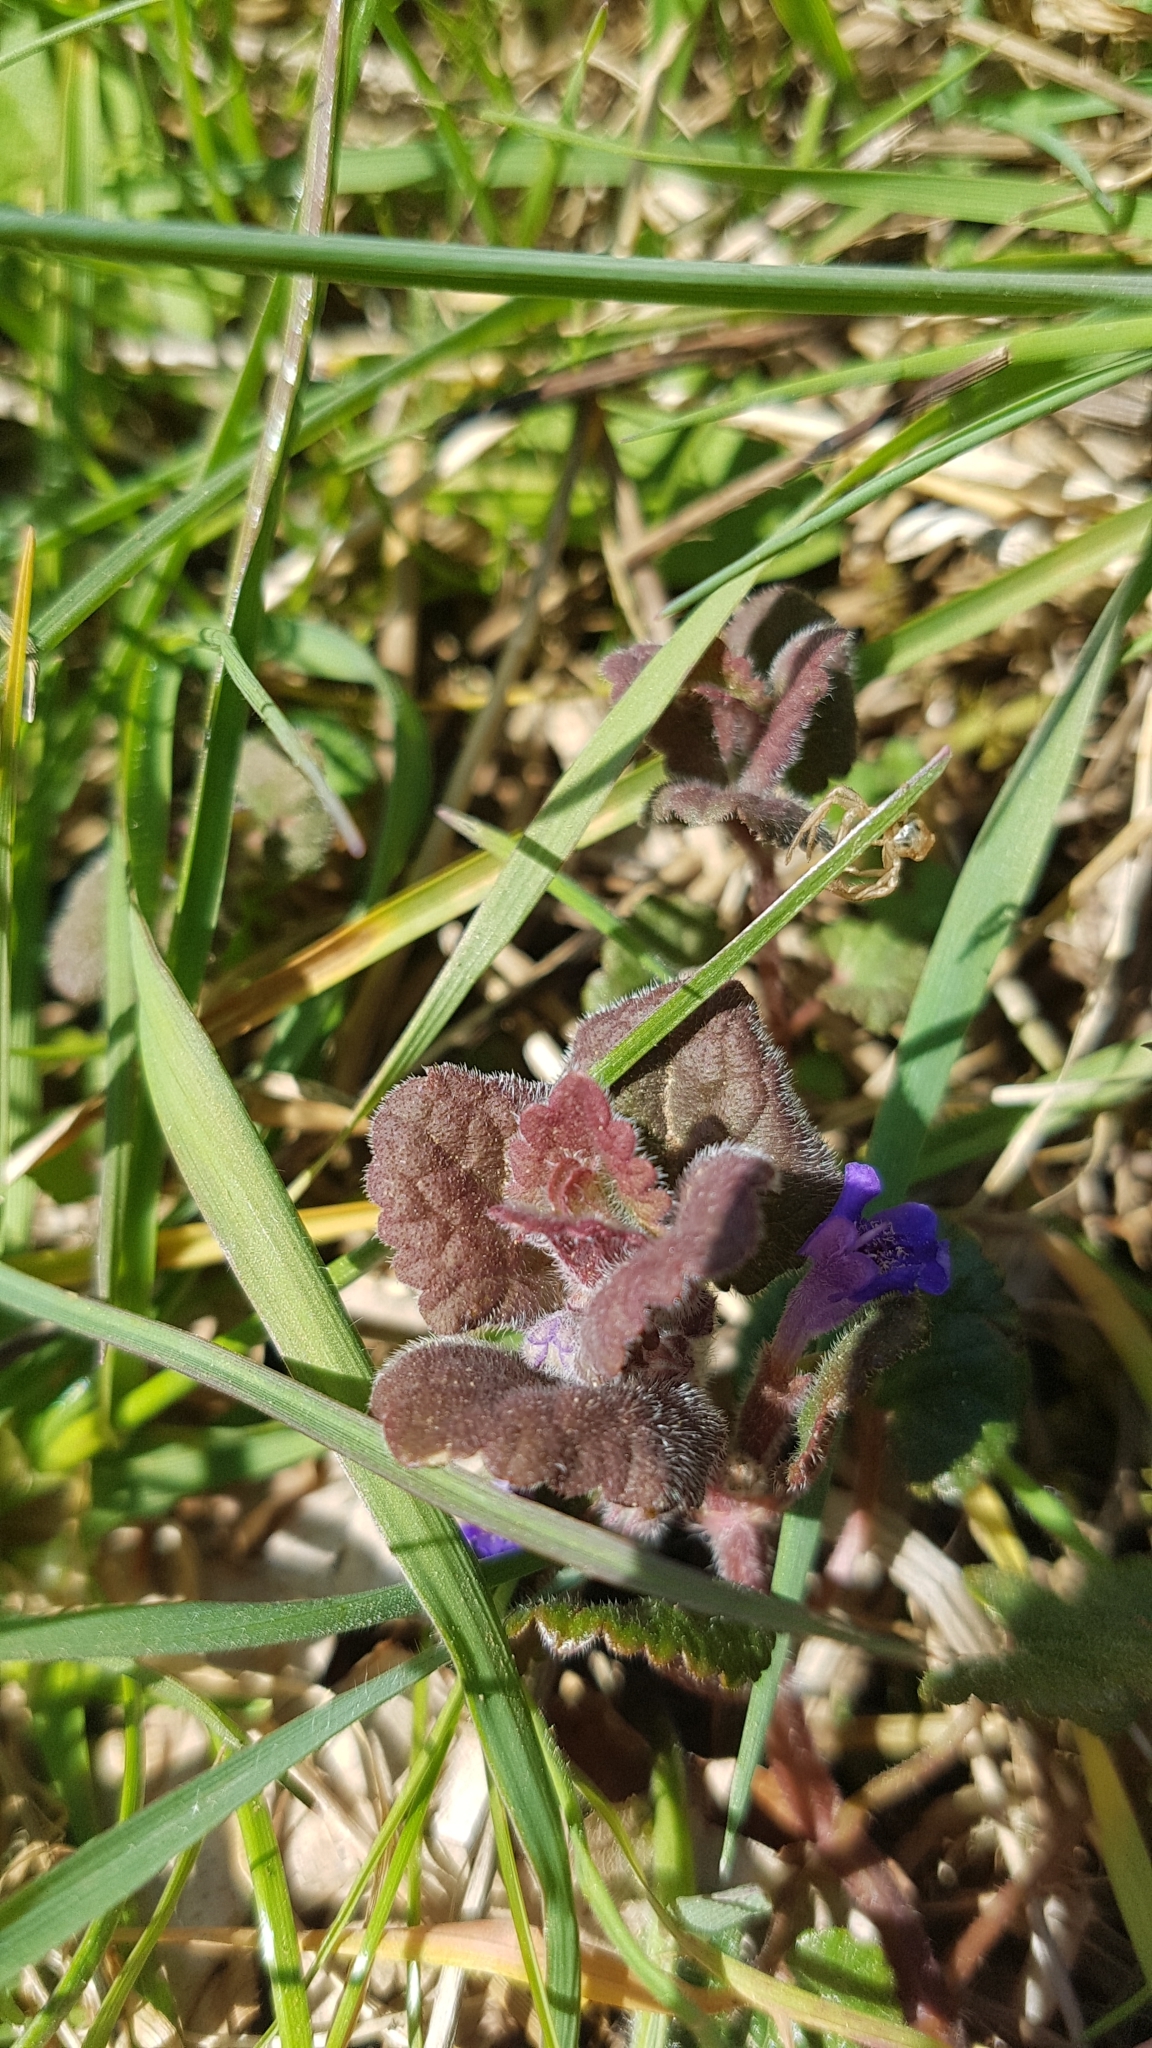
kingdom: Plantae
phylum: Tracheophyta
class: Magnoliopsida
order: Lamiales
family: Lamiaceae
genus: Glechoma
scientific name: Glechoma hederacea
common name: Ground ivy
